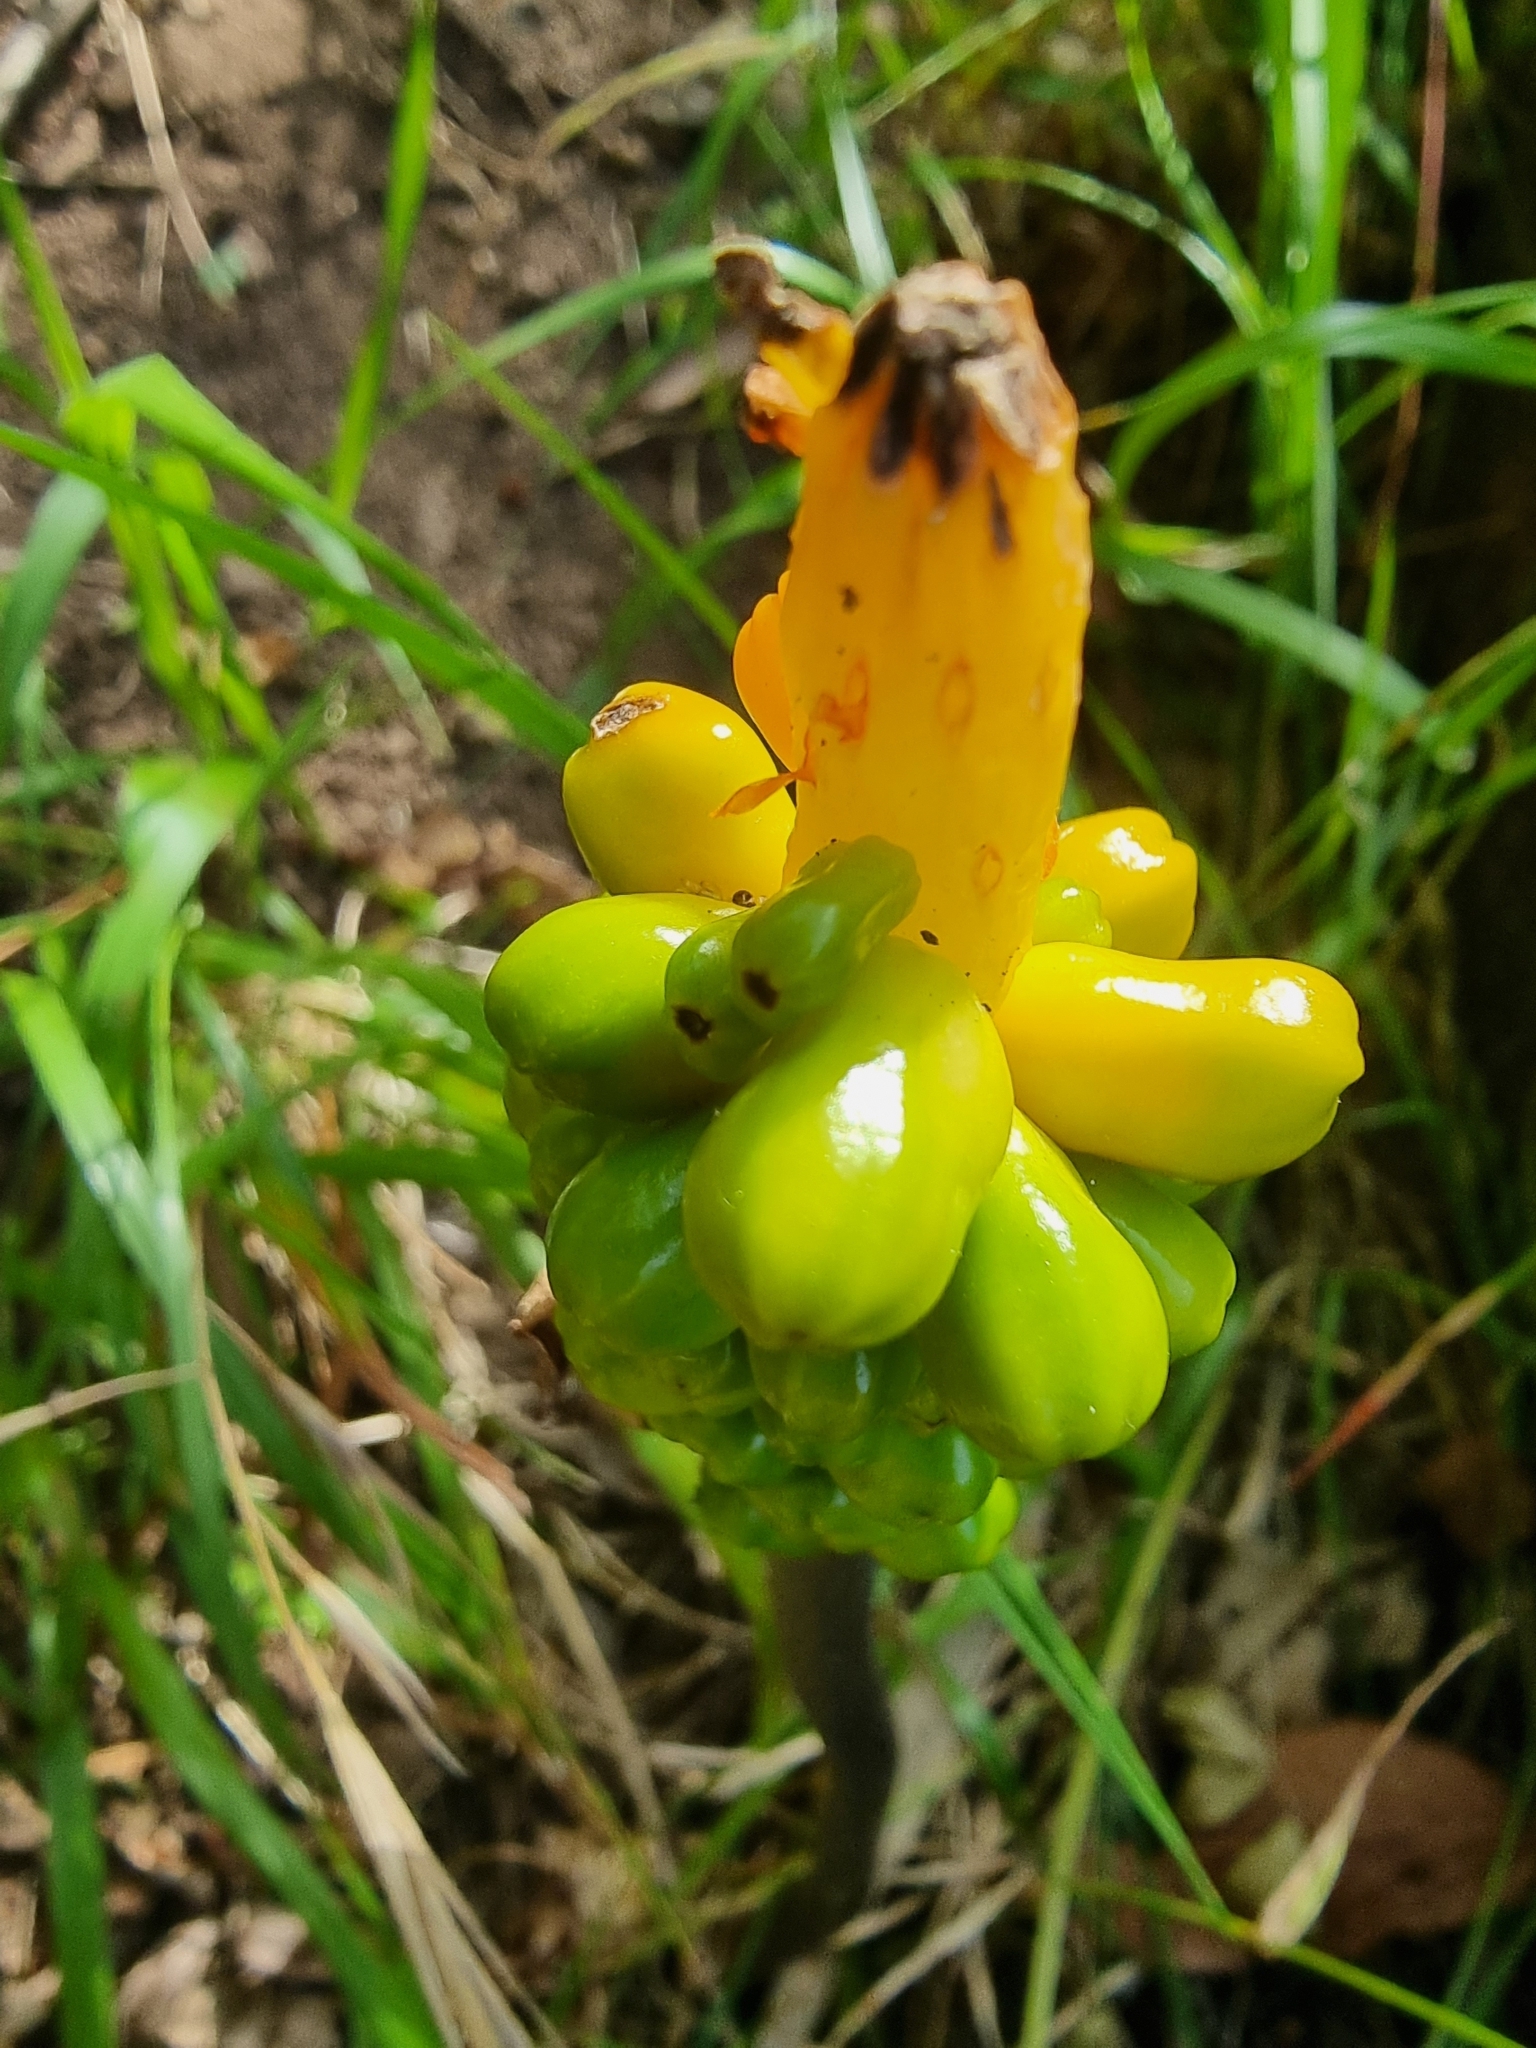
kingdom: Plantae
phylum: Tracheophyta
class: Liliopsida
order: Alismatales
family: Araceae
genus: Arum
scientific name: Arum italicum
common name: Italian lords-and-ladies
